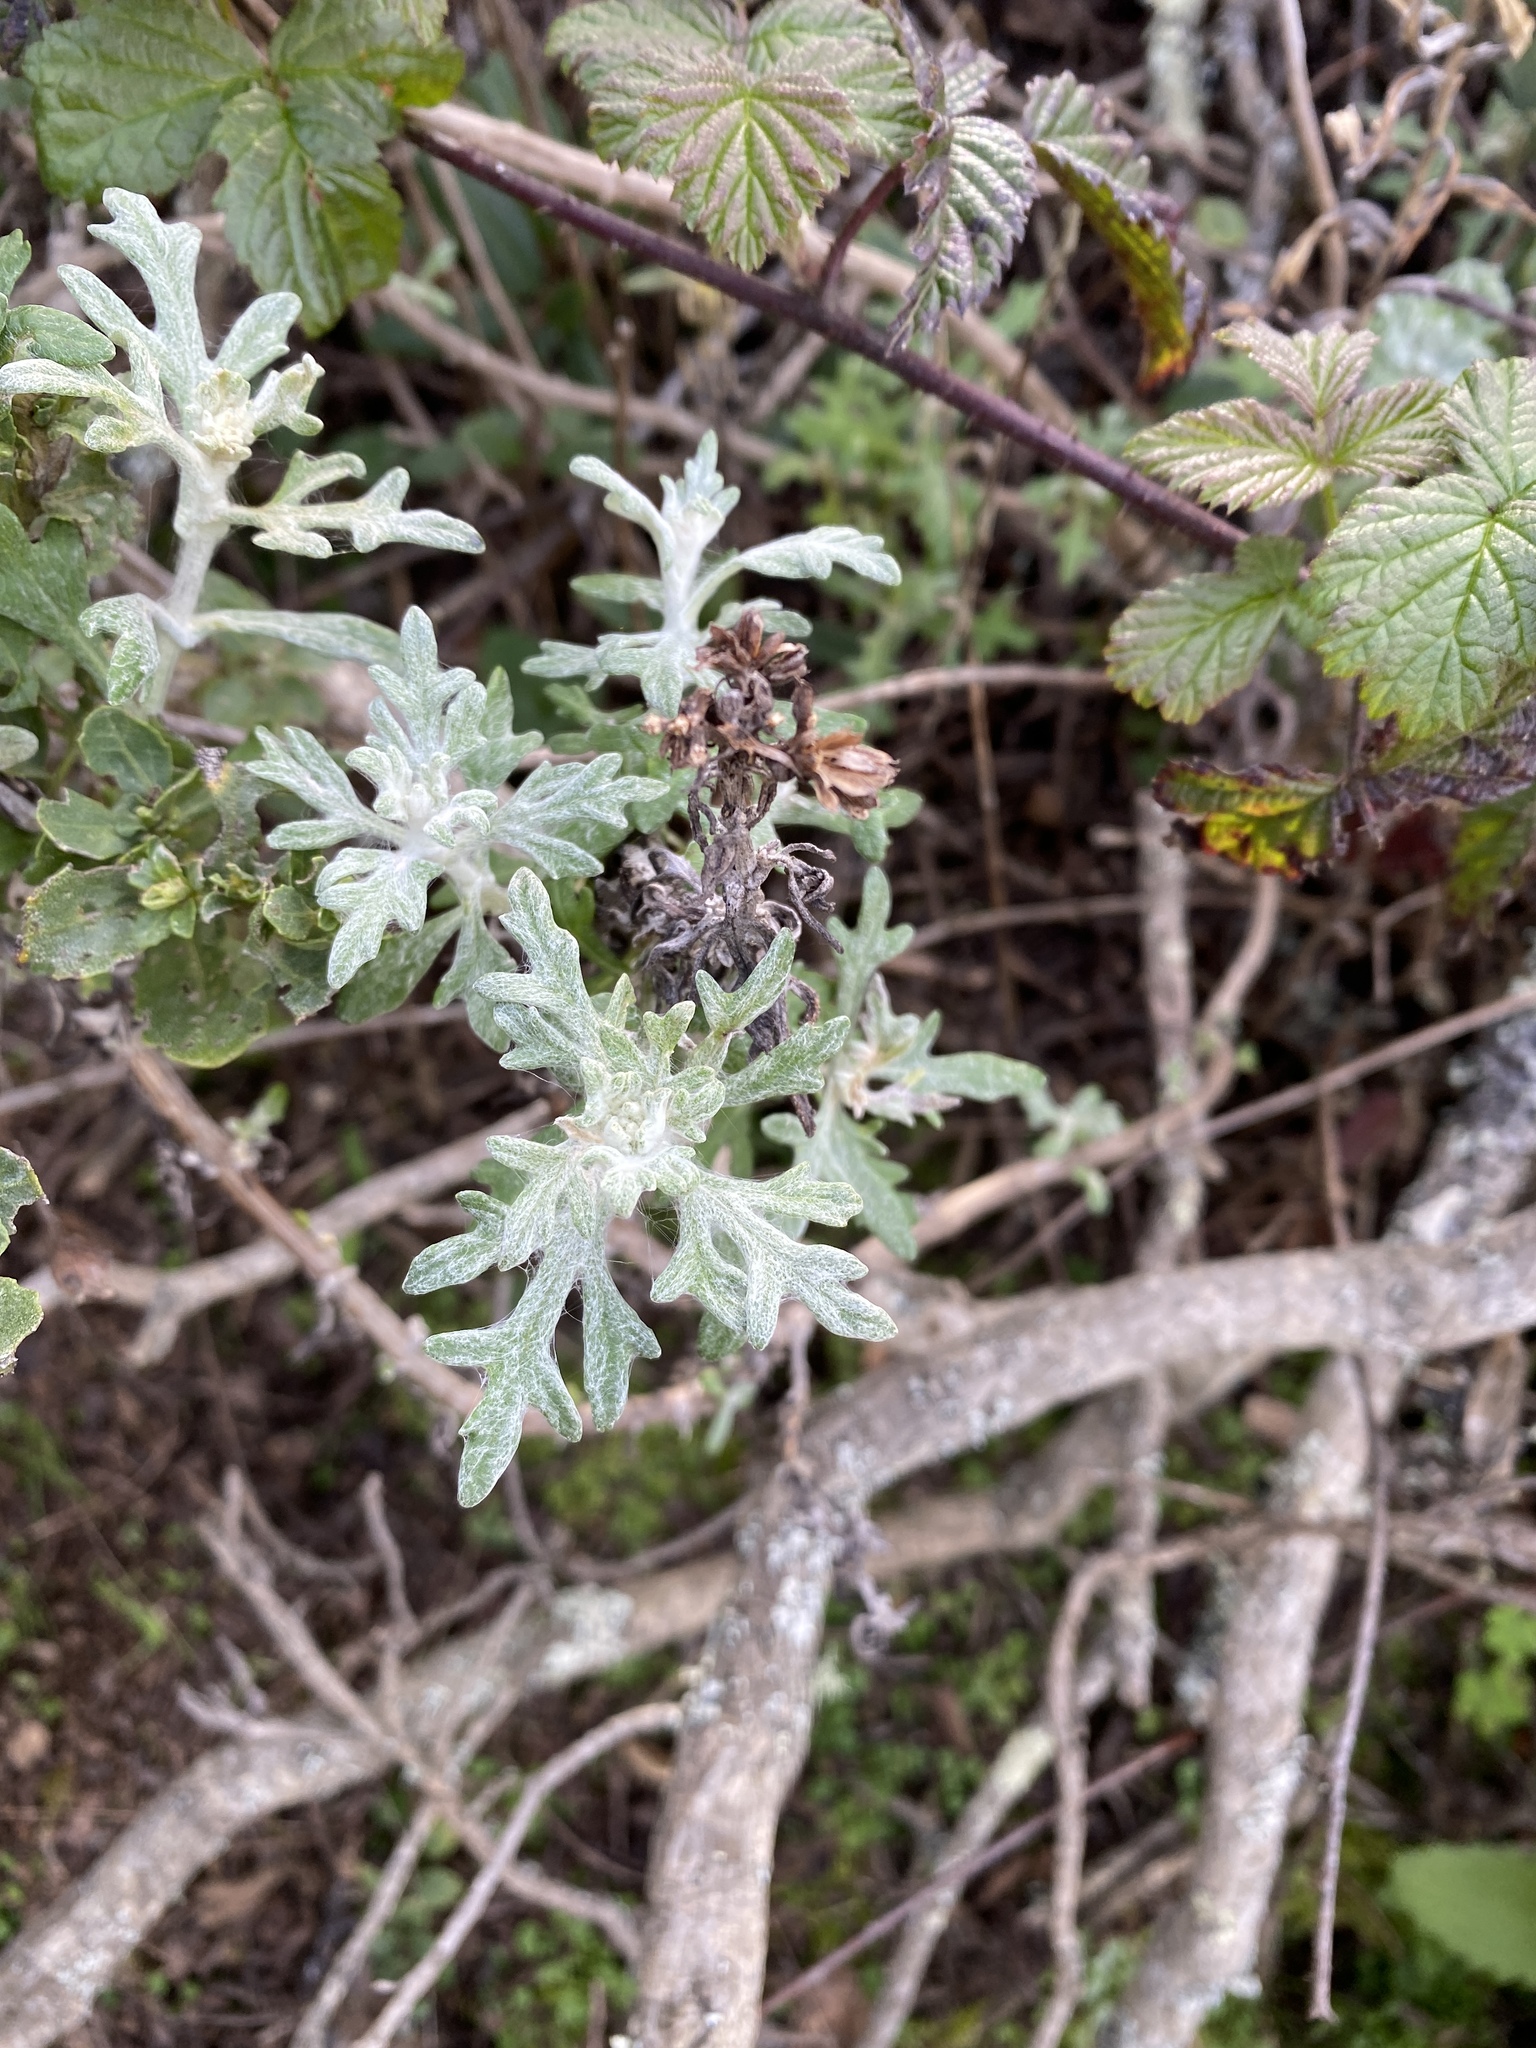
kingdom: Plantae
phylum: Tracheophyta
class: Magnoliopsida
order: Asterales
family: Asteraceae
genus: Eriophyllum
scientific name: Eriophyllum staechadifolium
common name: Lizardtail
